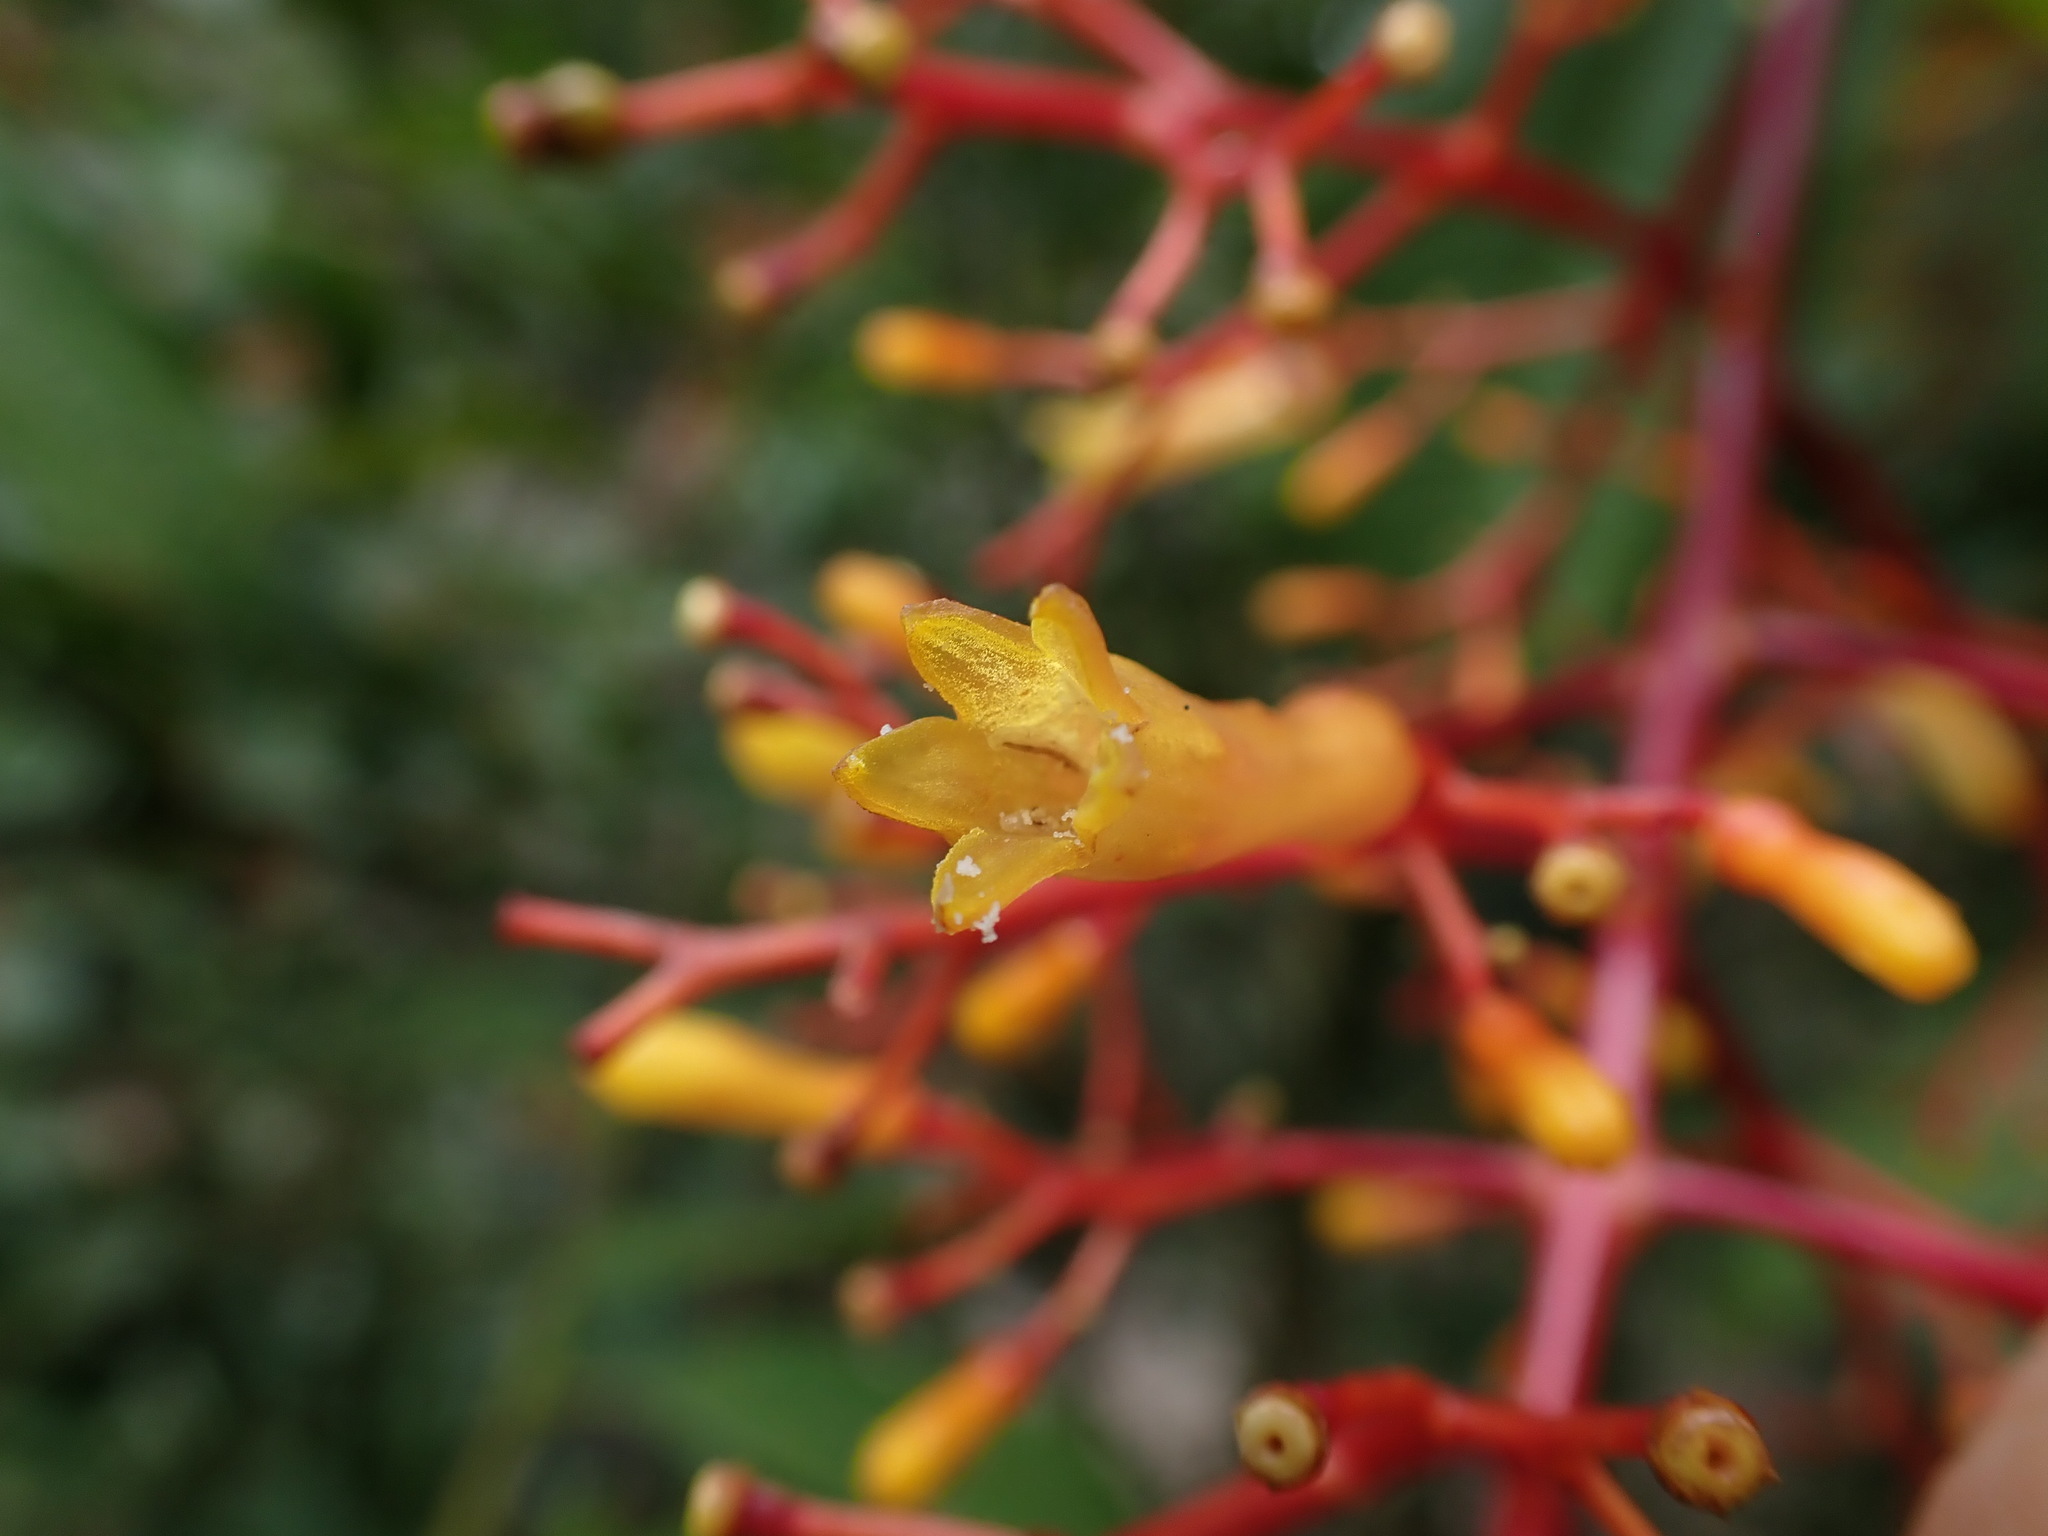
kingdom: Plantae
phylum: Tracheophyta
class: Magnoliopsida
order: Gentianales
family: Rubiaceae
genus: Palicourea
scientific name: Palicourea thyrsiflora
